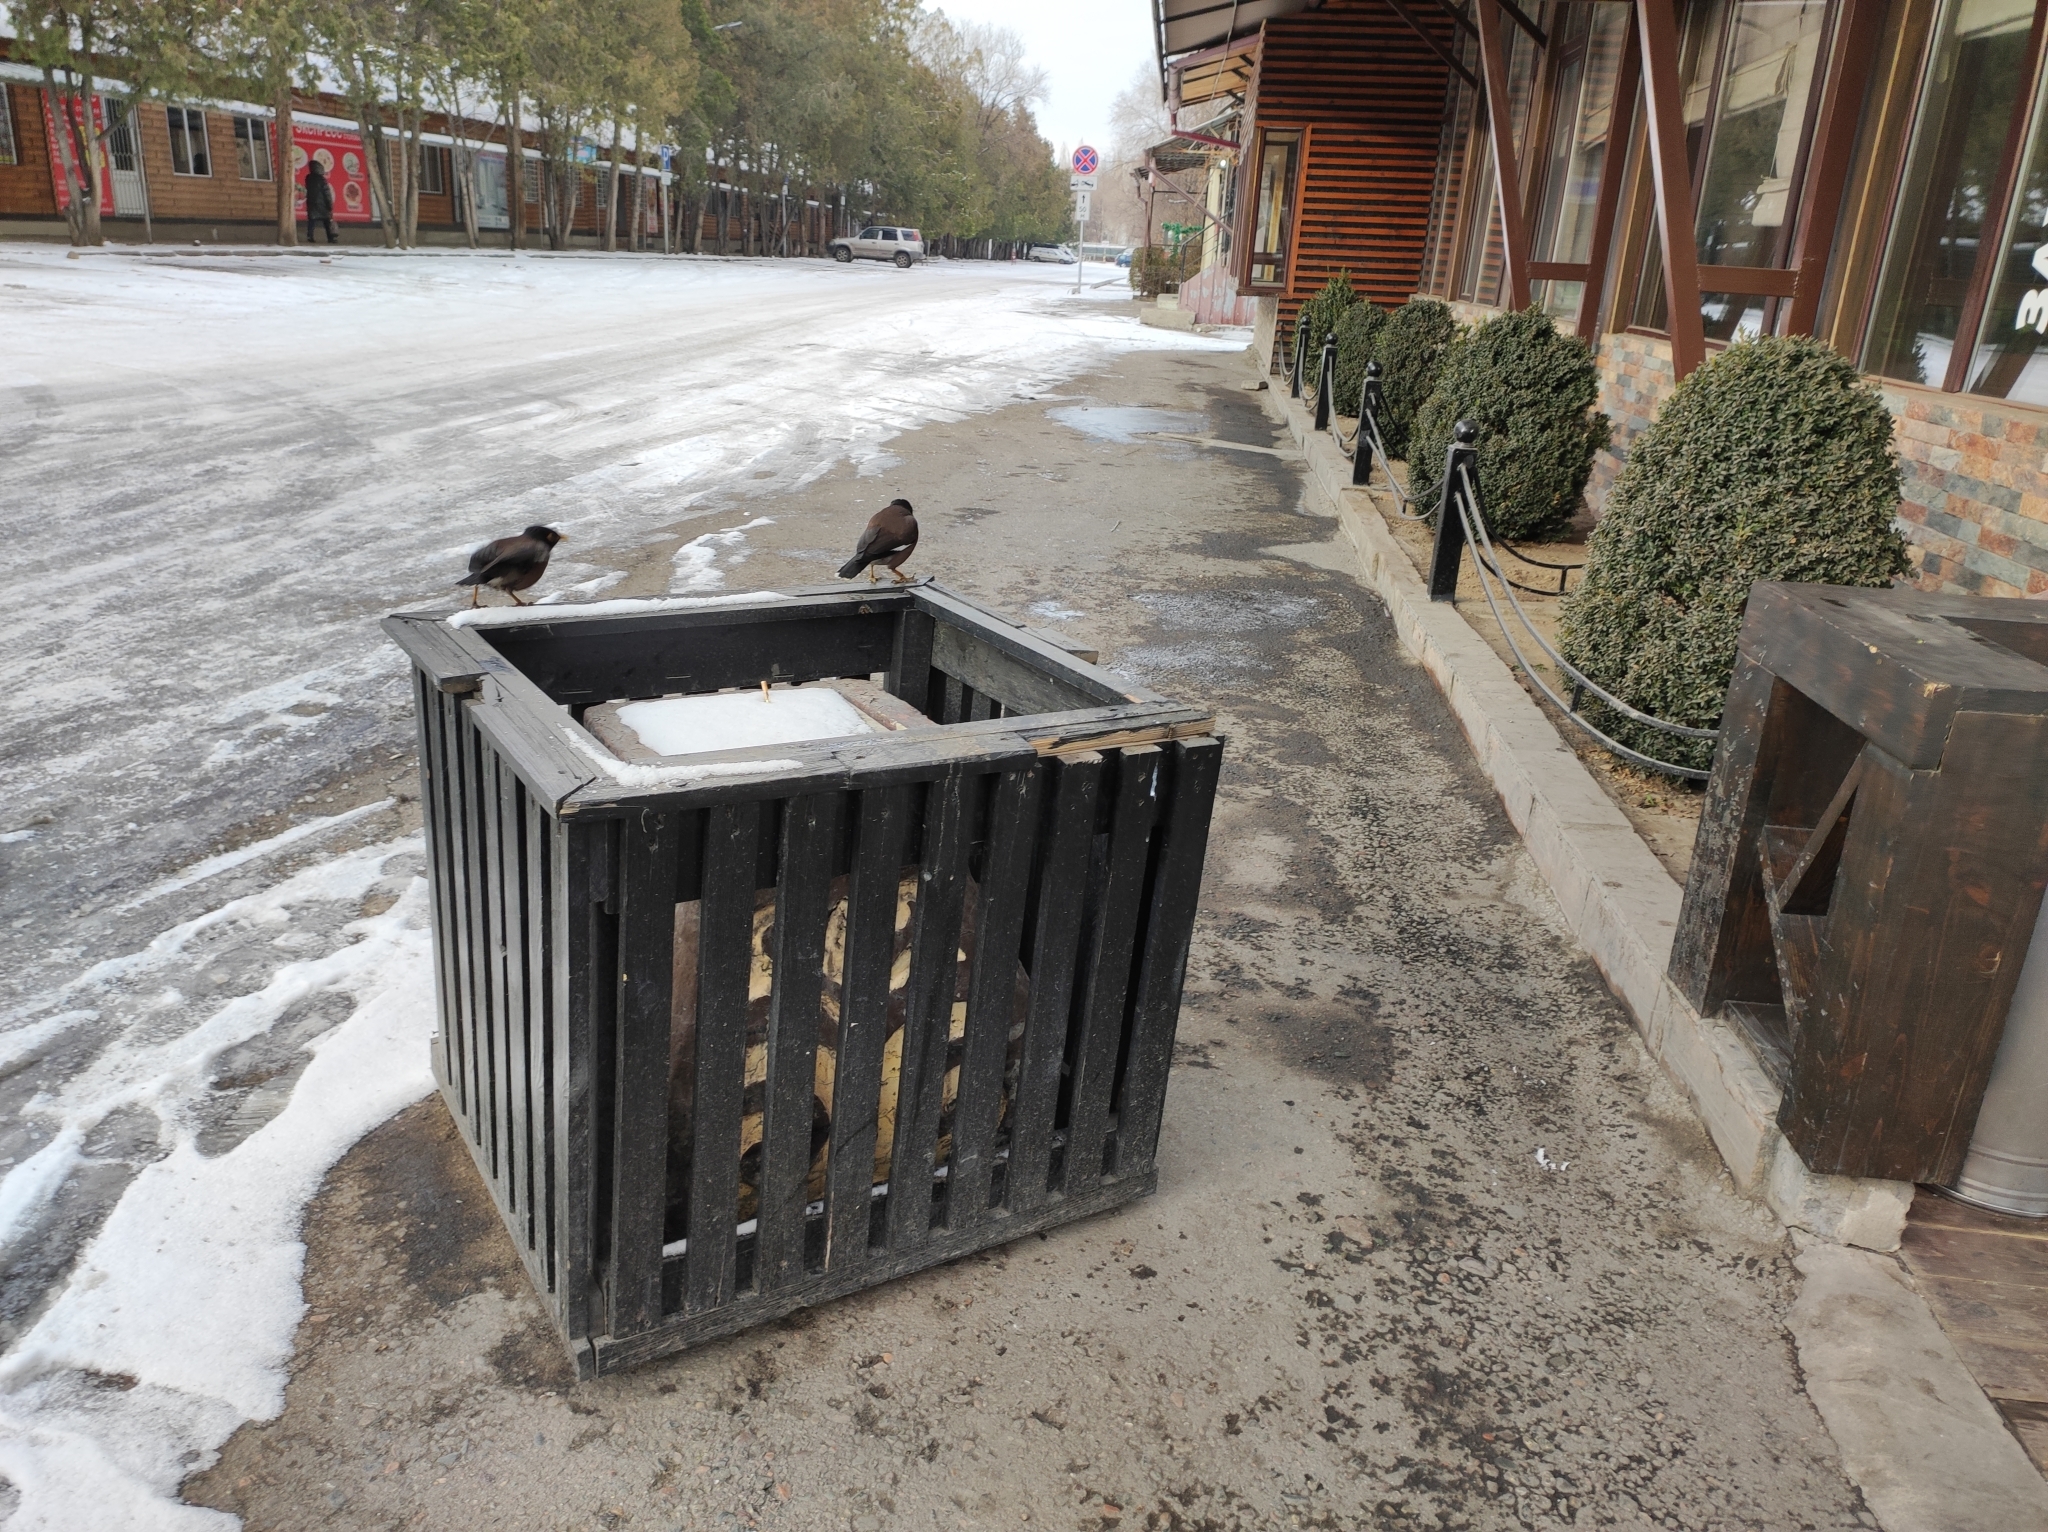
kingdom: Animalia
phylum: Chordata
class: Aves
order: Passeriformes
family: Sturnidae
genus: Acridotheres
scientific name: Acridotheres tristis
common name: Common myna
